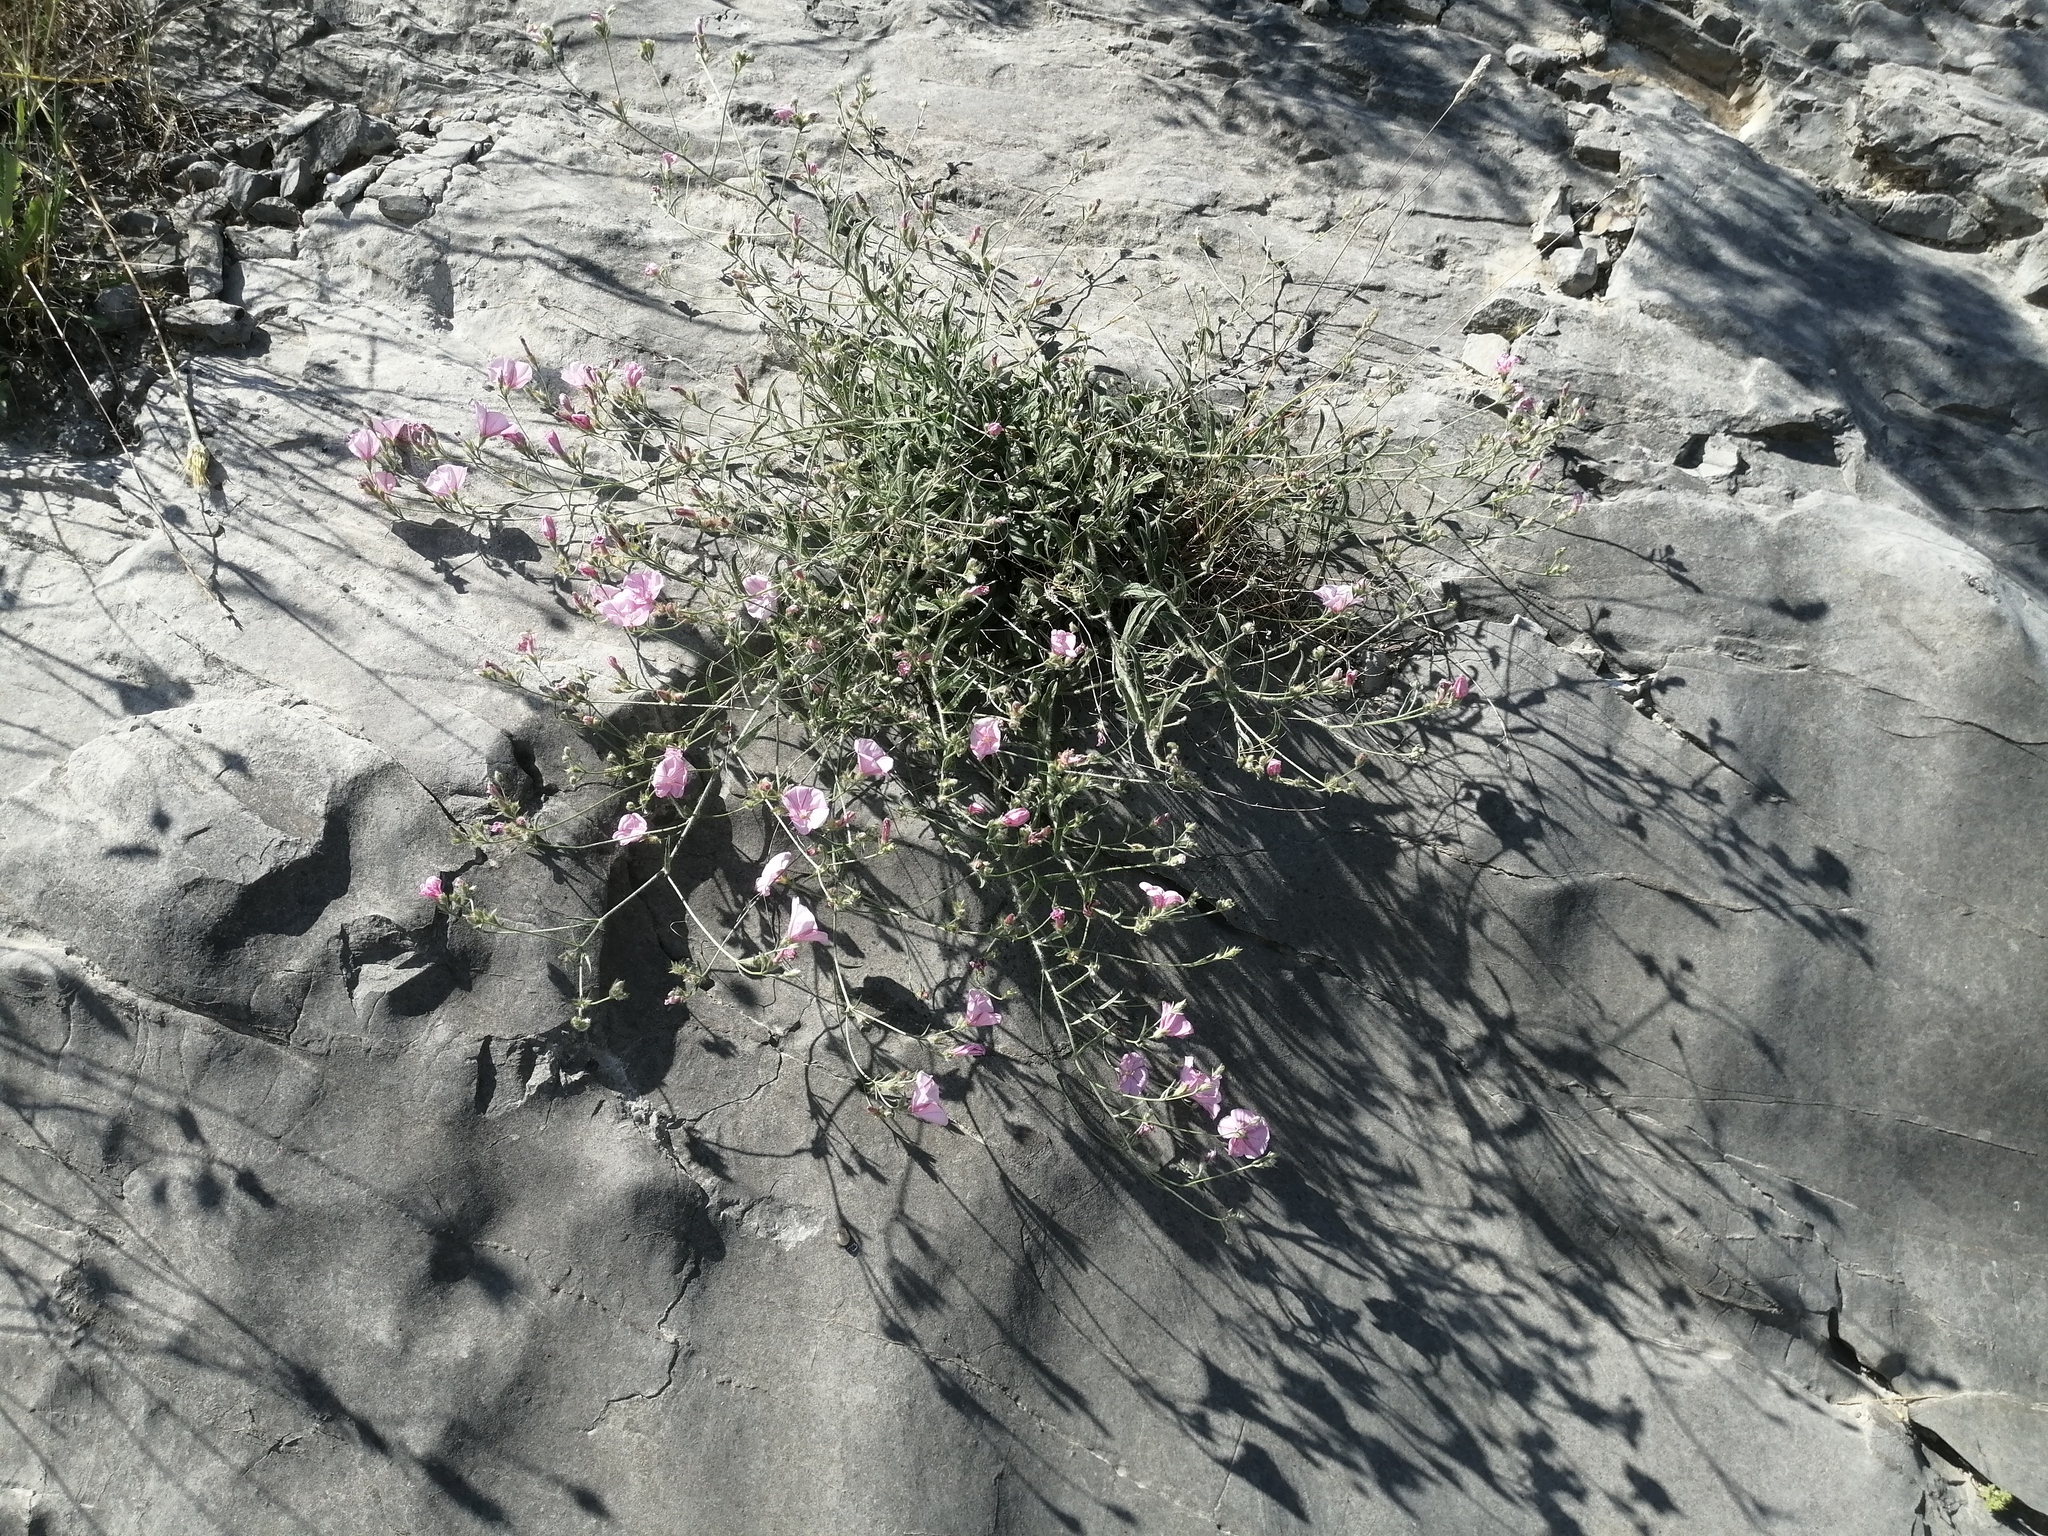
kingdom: Plantae
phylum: Tracheophyta
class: Magnoliopsida
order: Solanales
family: Convolvulaceae
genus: Convolvulus
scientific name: Convolvulus cantabrica
